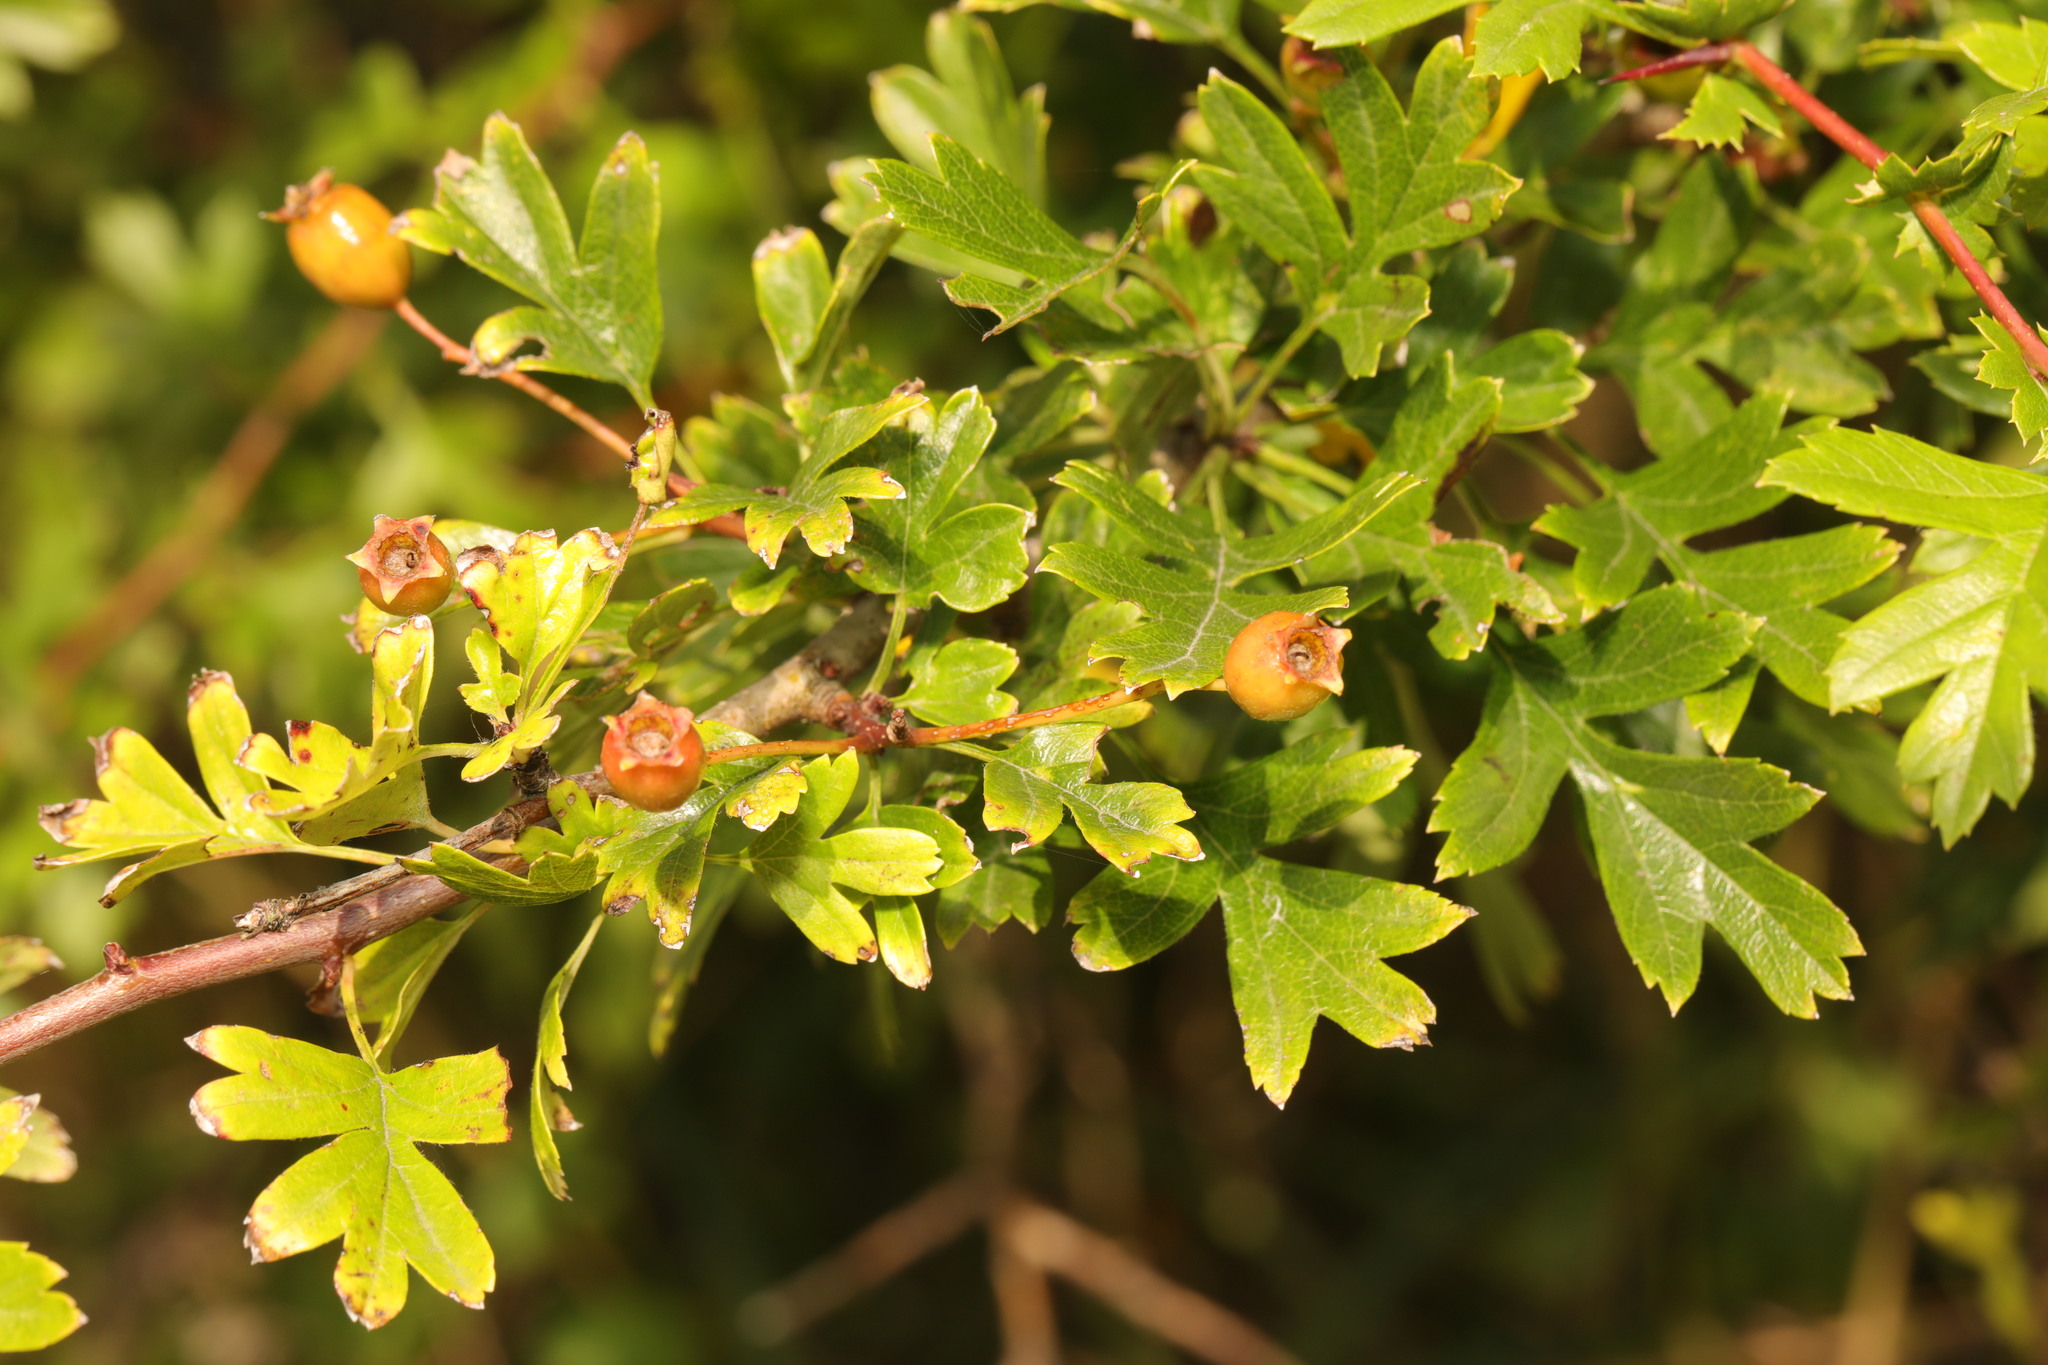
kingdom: Plantae
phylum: Tracheophyta
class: Magnoliopsida
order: Rosales
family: Rosaceae
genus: Crataegus
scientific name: Crataegus monogyna
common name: Hawthorn
